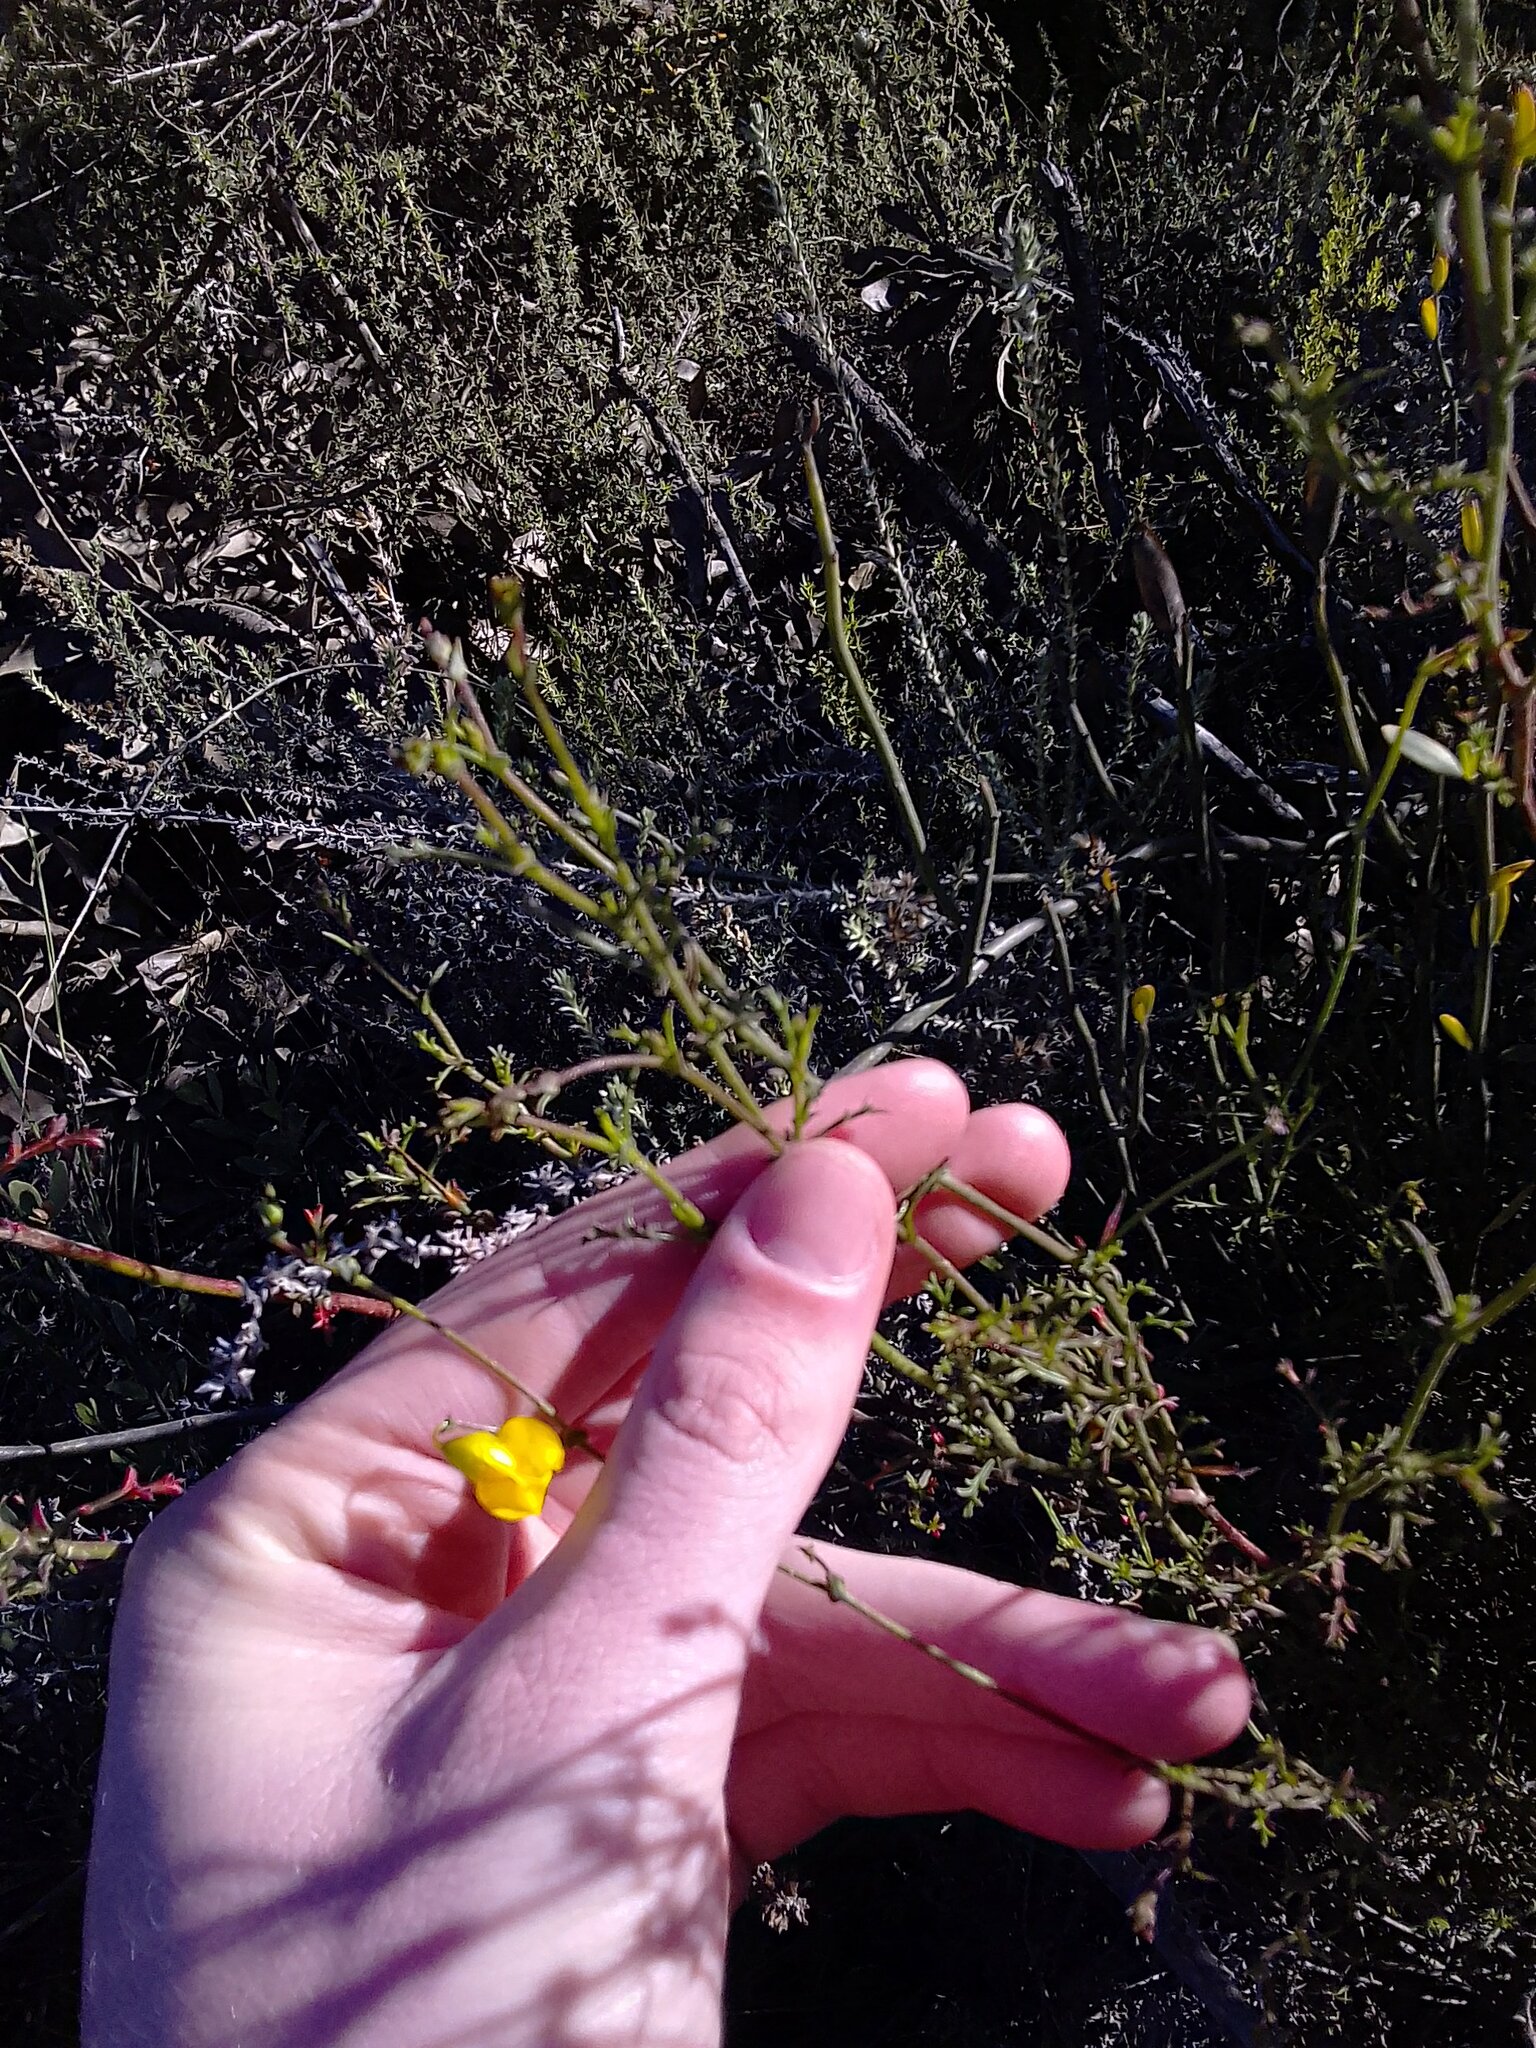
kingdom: Plantae
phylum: Tracheophyta
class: Magnoliopsida
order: Malvales
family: Malvaceae
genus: Hermannia
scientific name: Hermannia confusa
